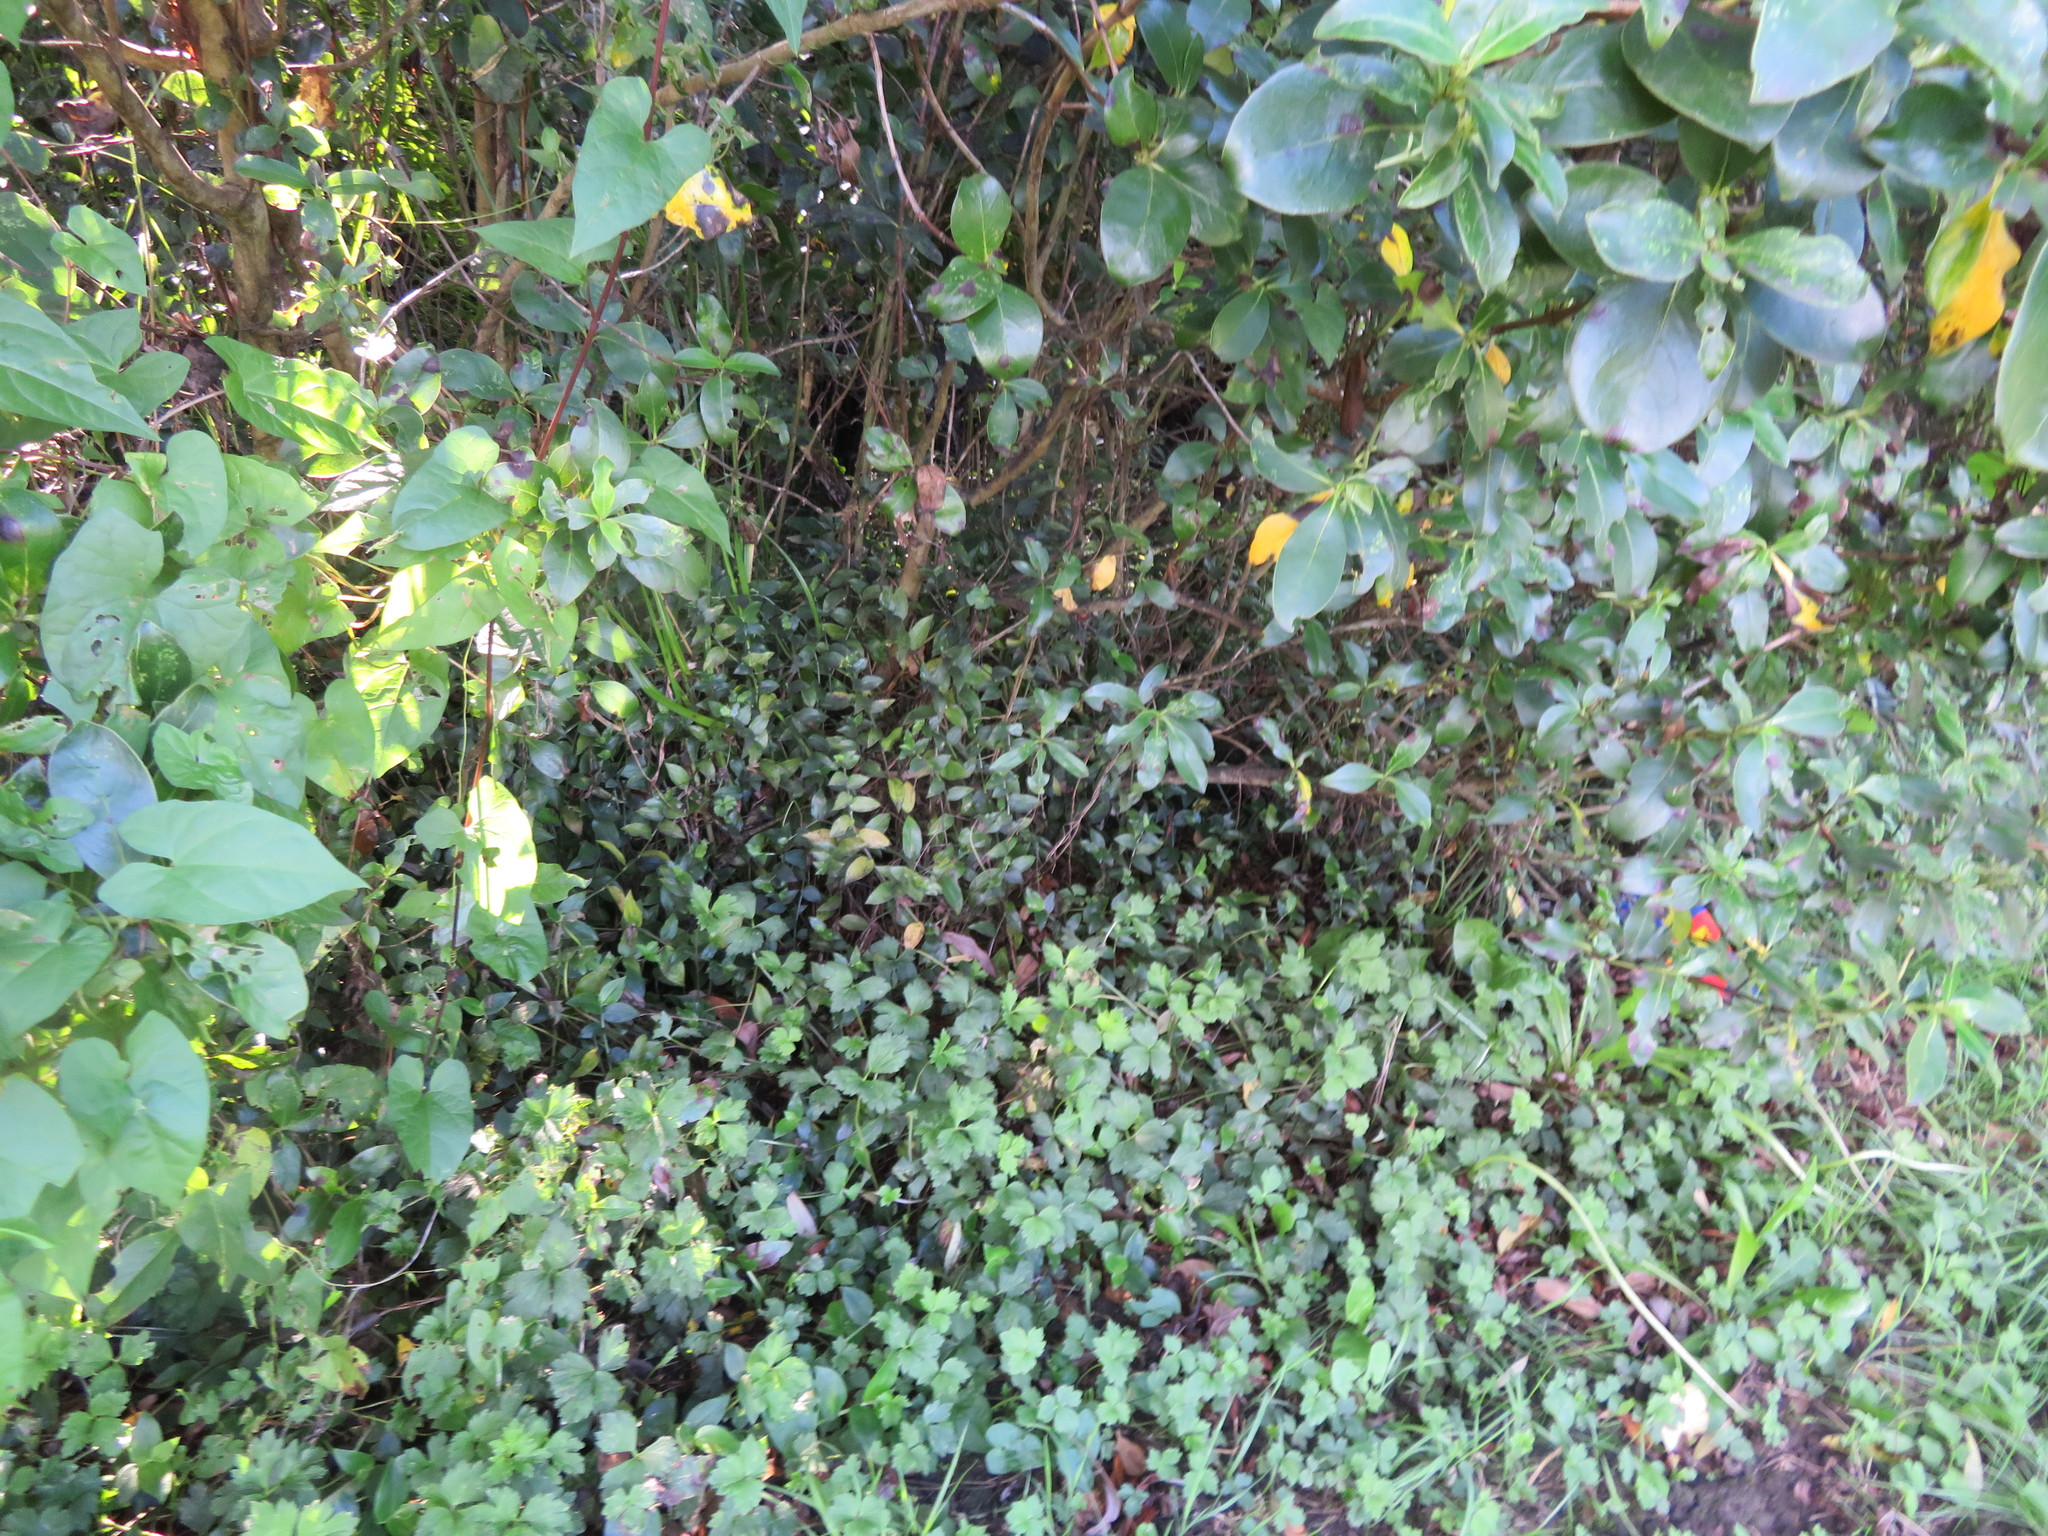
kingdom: Plantae
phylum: Tracheophyta
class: Liliopsida
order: Commelinales
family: Commelinaceae
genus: Tradescantia
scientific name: Tradescantia fluminensis
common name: Wandering-jew
